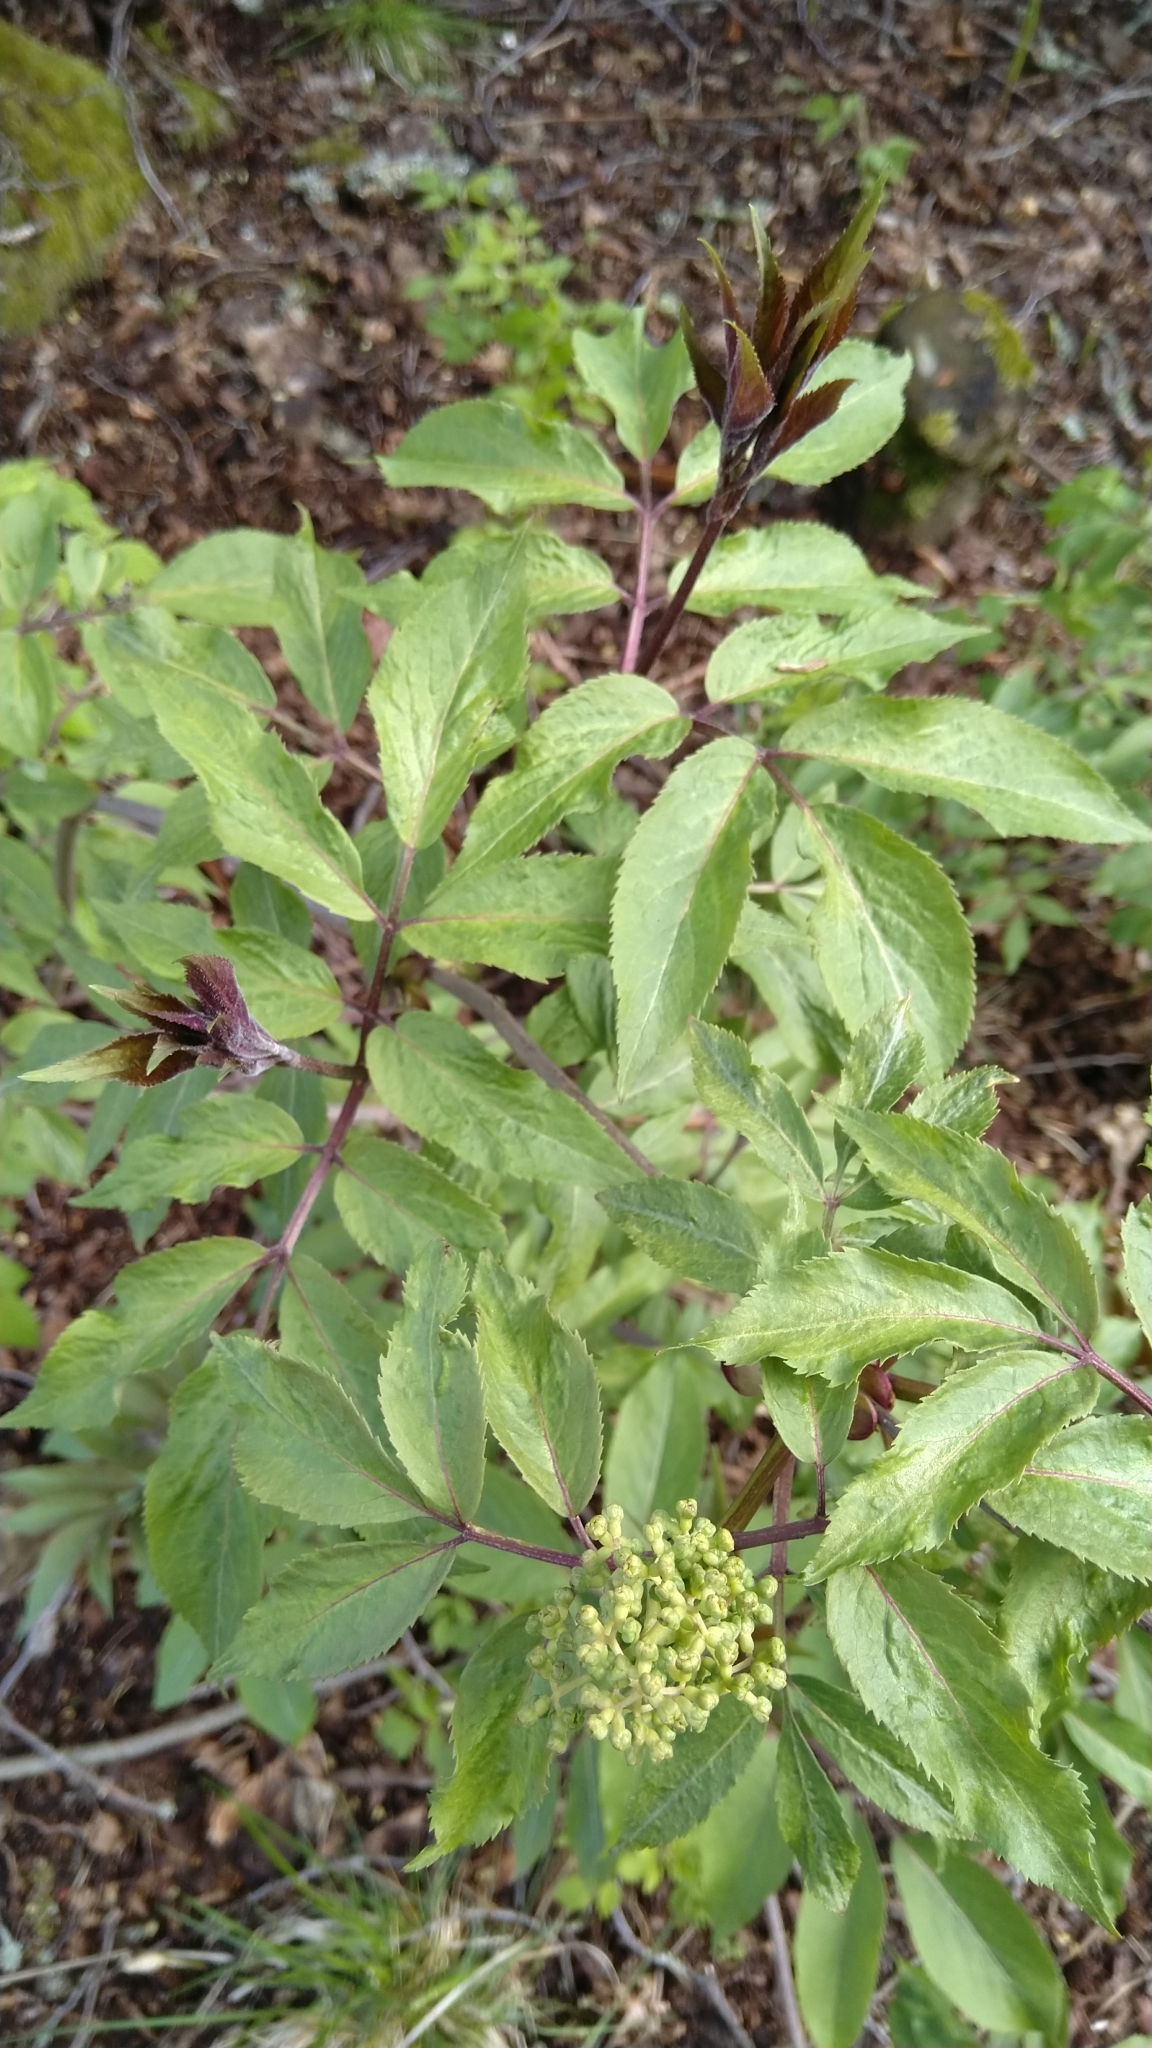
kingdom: Plantae
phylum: Tracheophyta
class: Magnoliopsida
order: Dipsacales
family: Viburnaceae
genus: Sambucus
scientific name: Sambucus racemosa
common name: Red-berried elder
